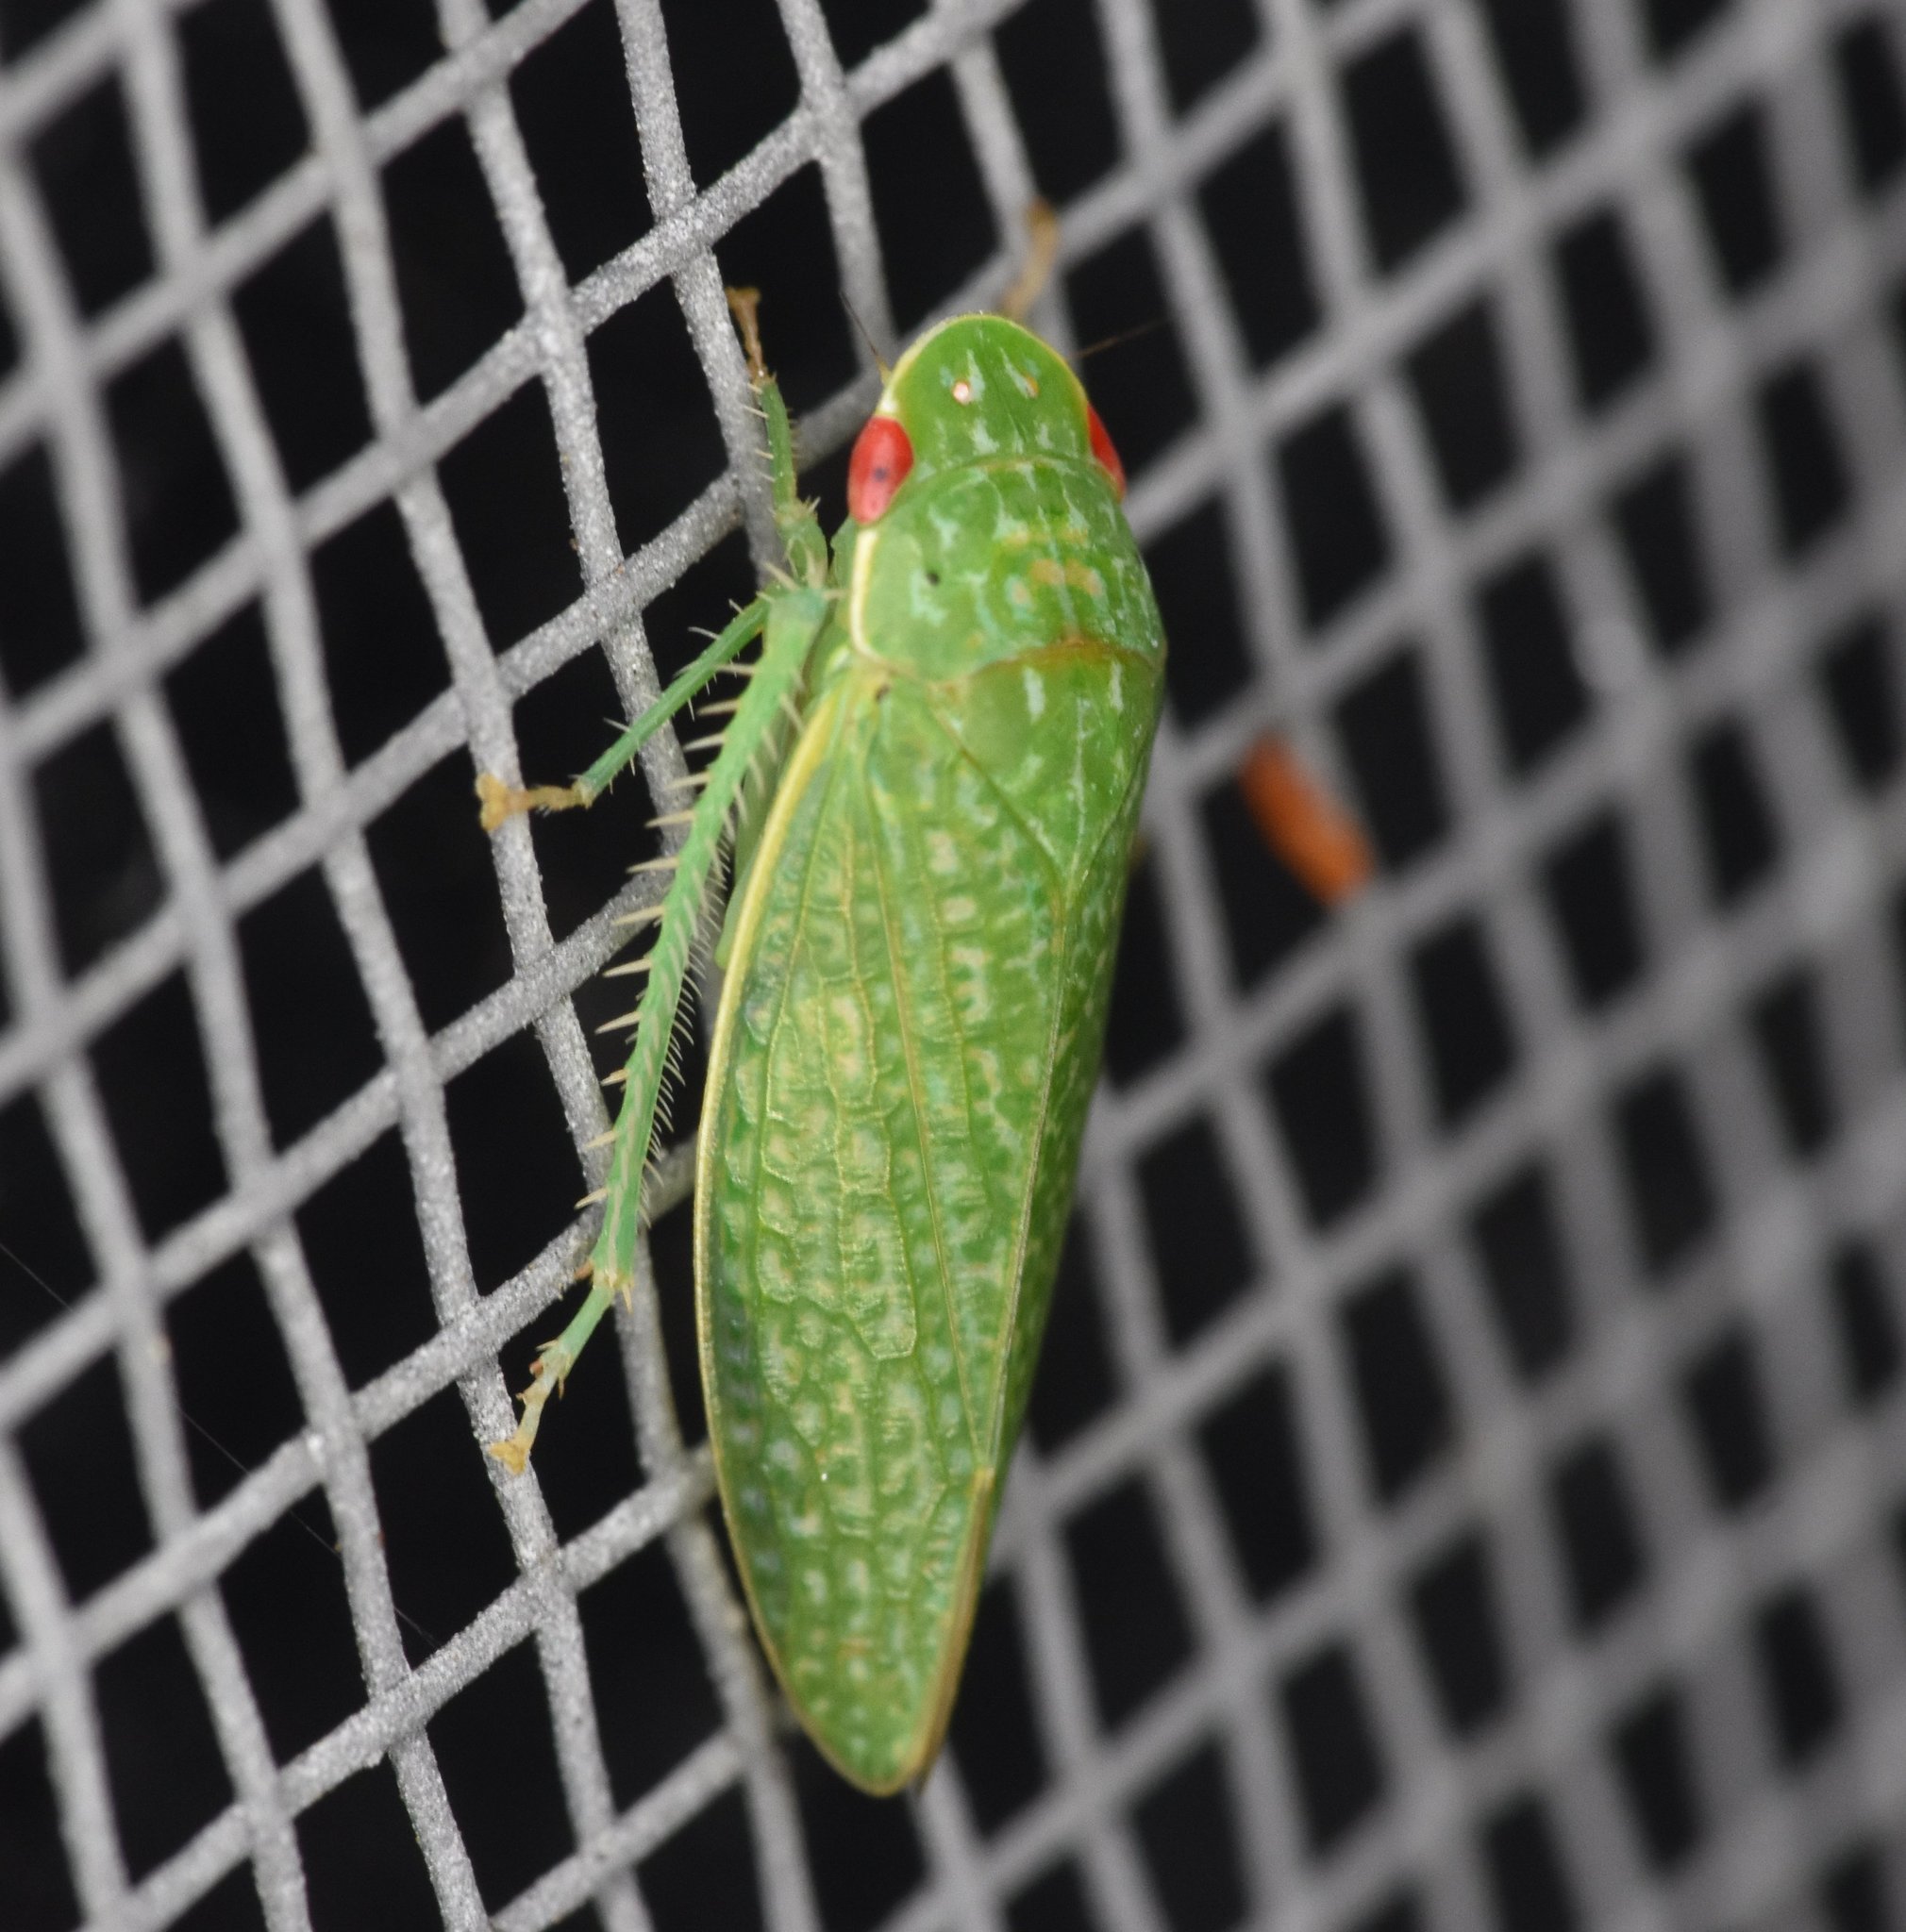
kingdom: Animalia
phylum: Arthropoda
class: Insecta
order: Hemiptera
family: Cicadellidae
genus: Rugosana
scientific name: Rugosana querci
